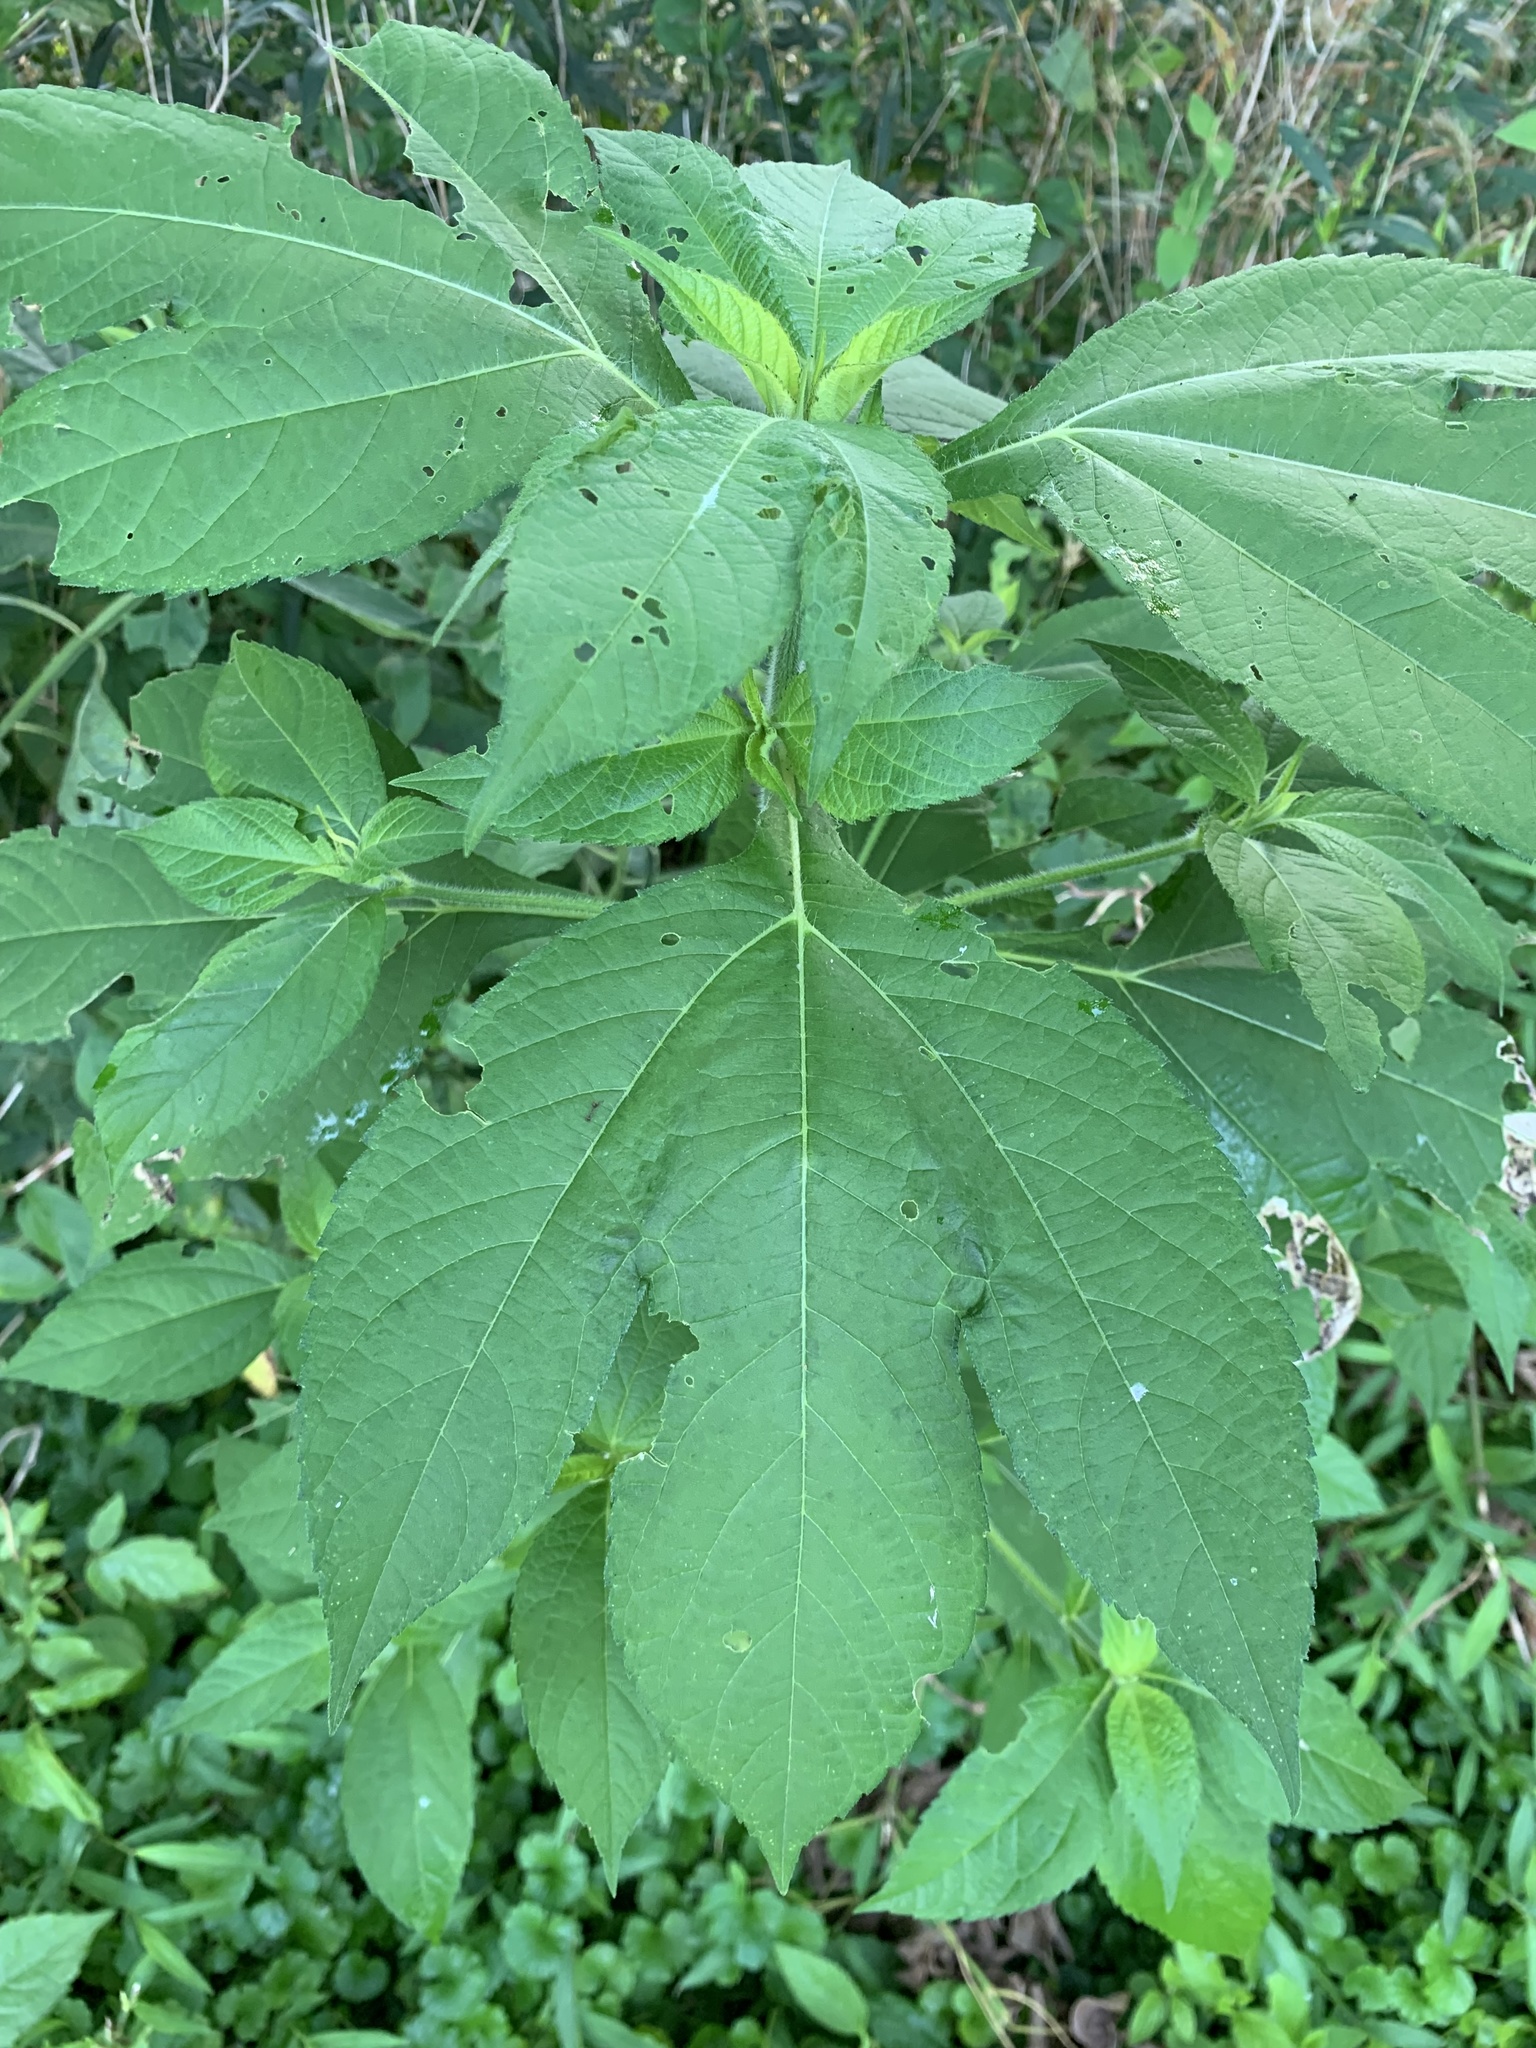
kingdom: Plantae
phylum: Tracheophyta
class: Magnoliopsida
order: Asterales
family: Asteraceae
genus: Ambrosia
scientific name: Ambrosia trifida
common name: Giant ragweed
